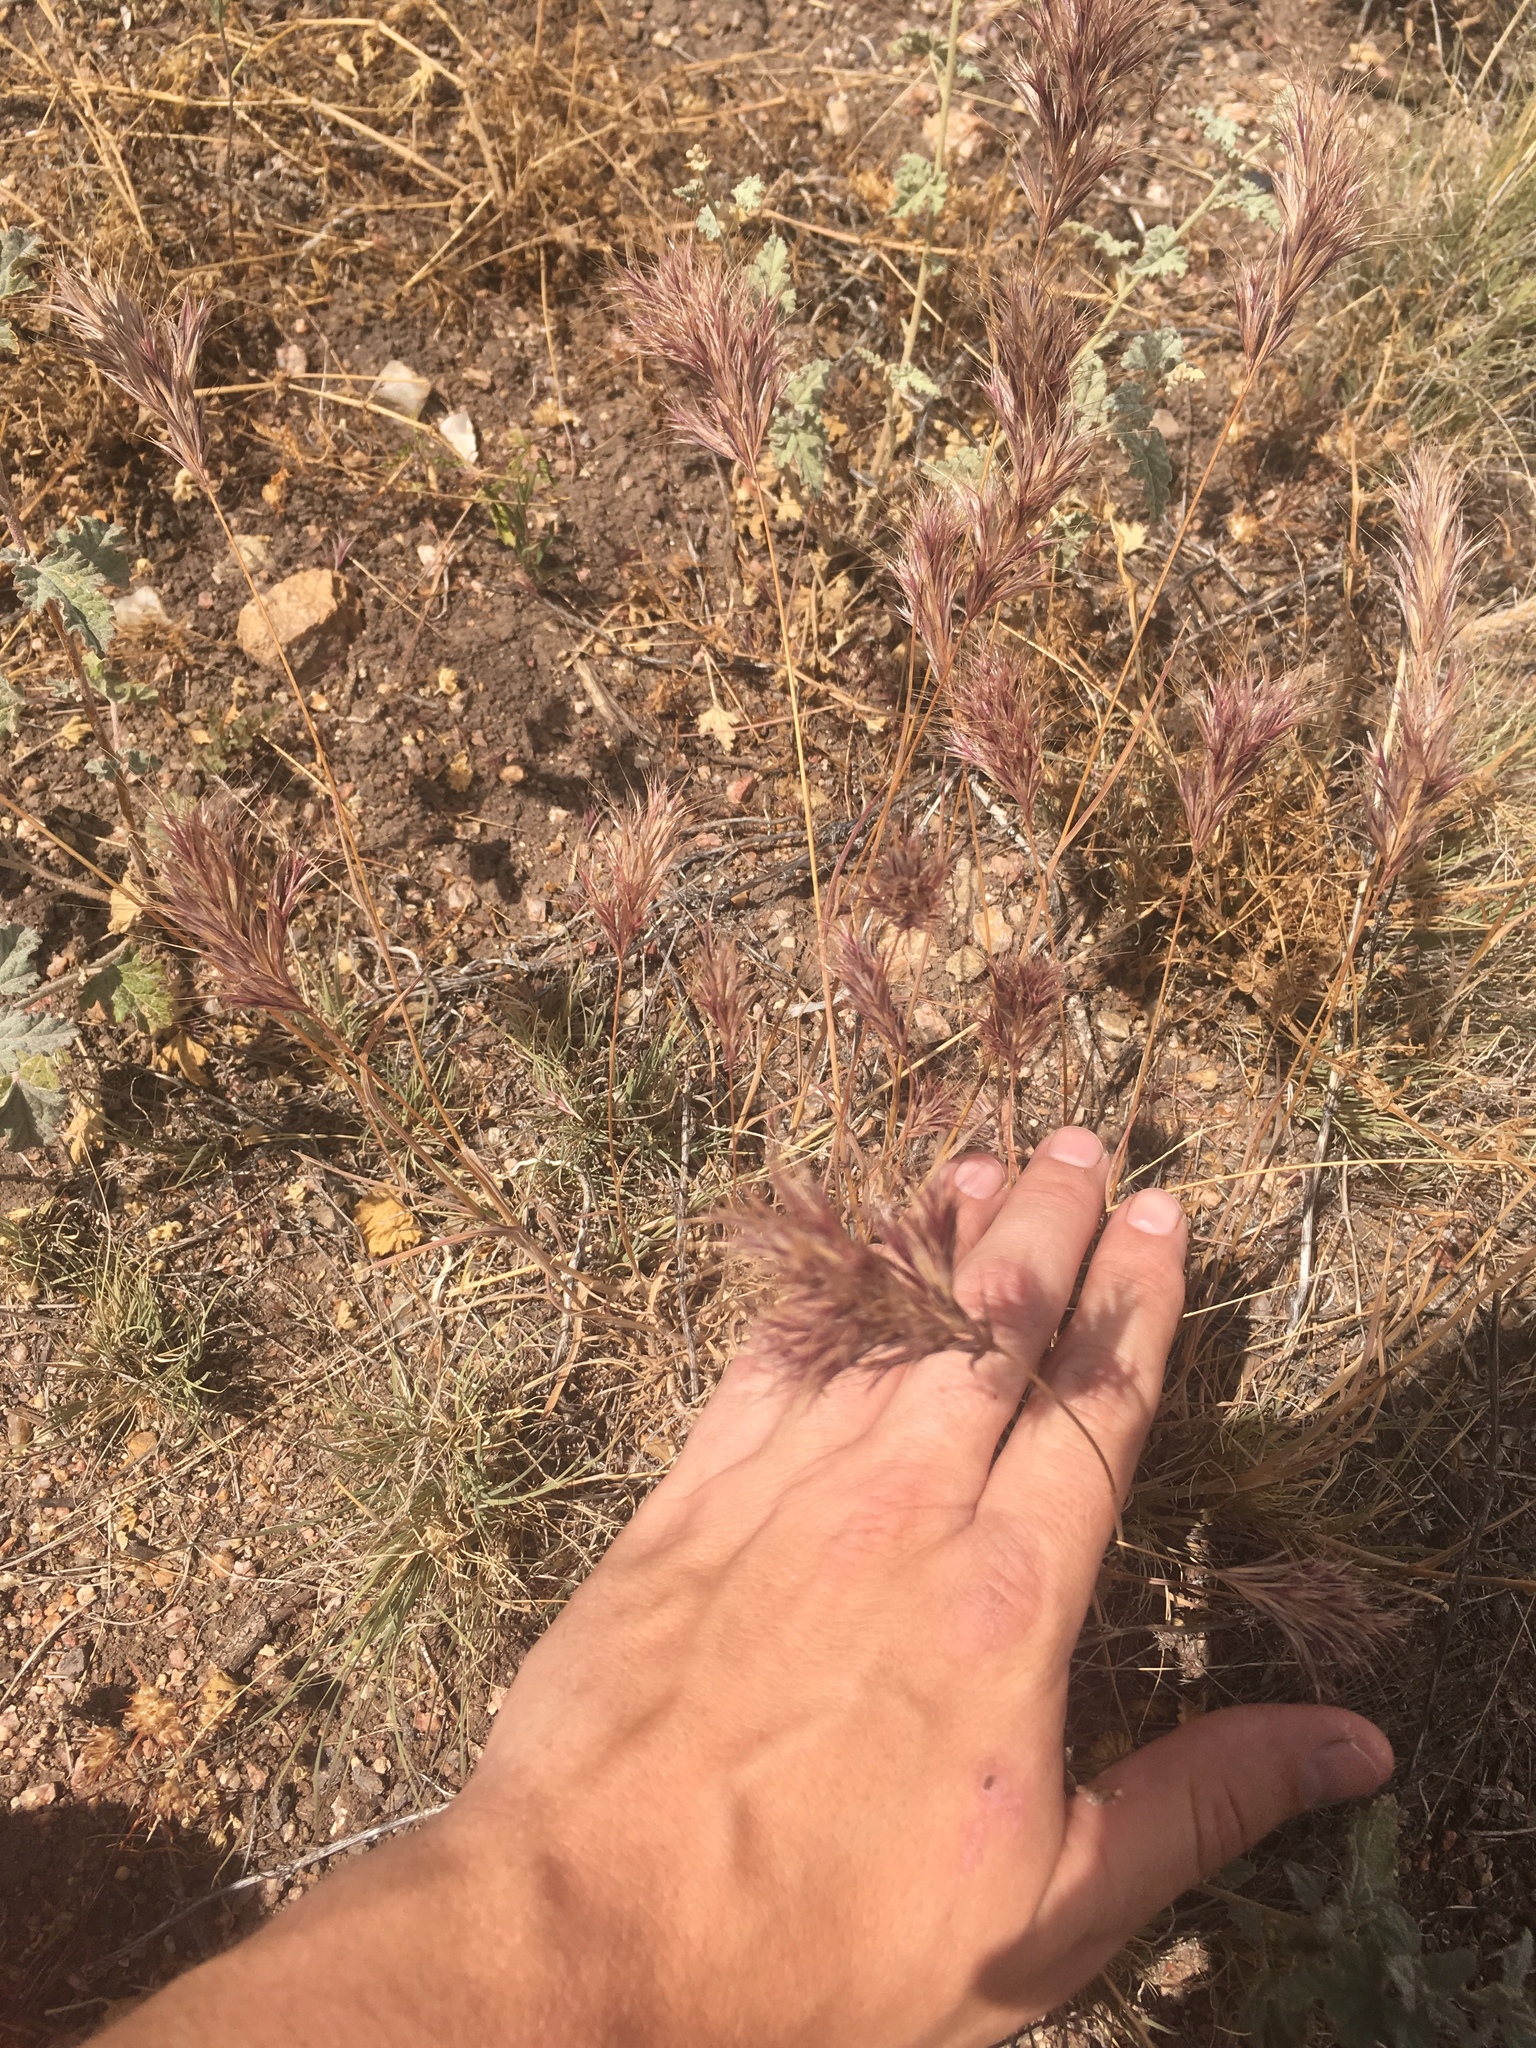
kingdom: Plantae
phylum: Tracheophyta
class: Liliopsida
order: Poales
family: Poaceae
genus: Bromus
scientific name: Bromus rubens
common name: Red brome
